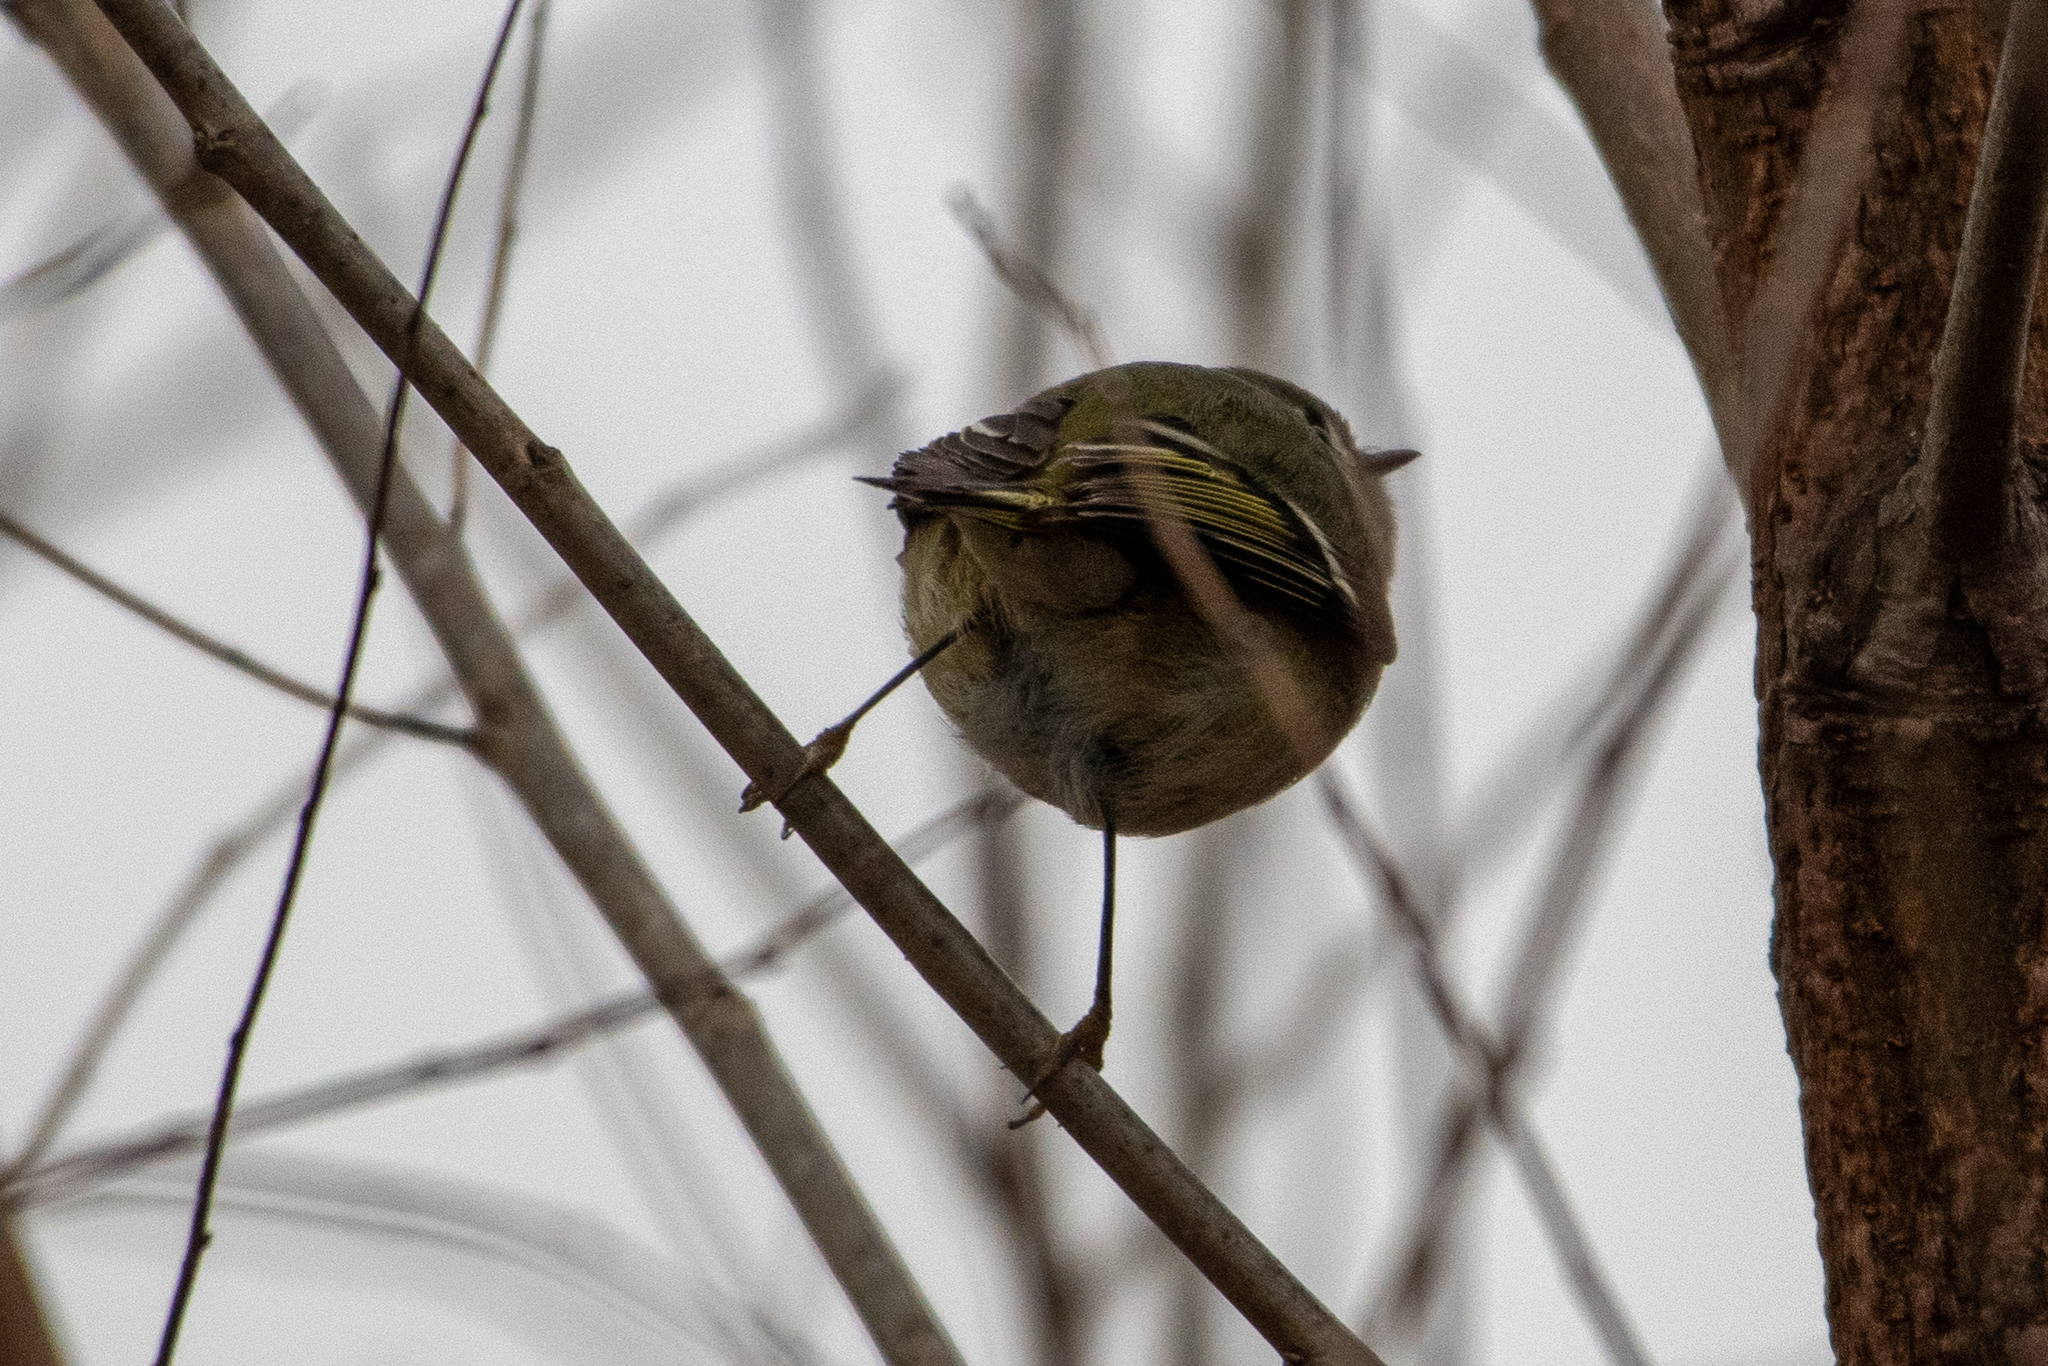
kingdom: Animalia
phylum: Chordata
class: Aves
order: Passeriformes
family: Regulidae
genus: Regulus
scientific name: Regulus calendula
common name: Ruby-crowned kinglet
